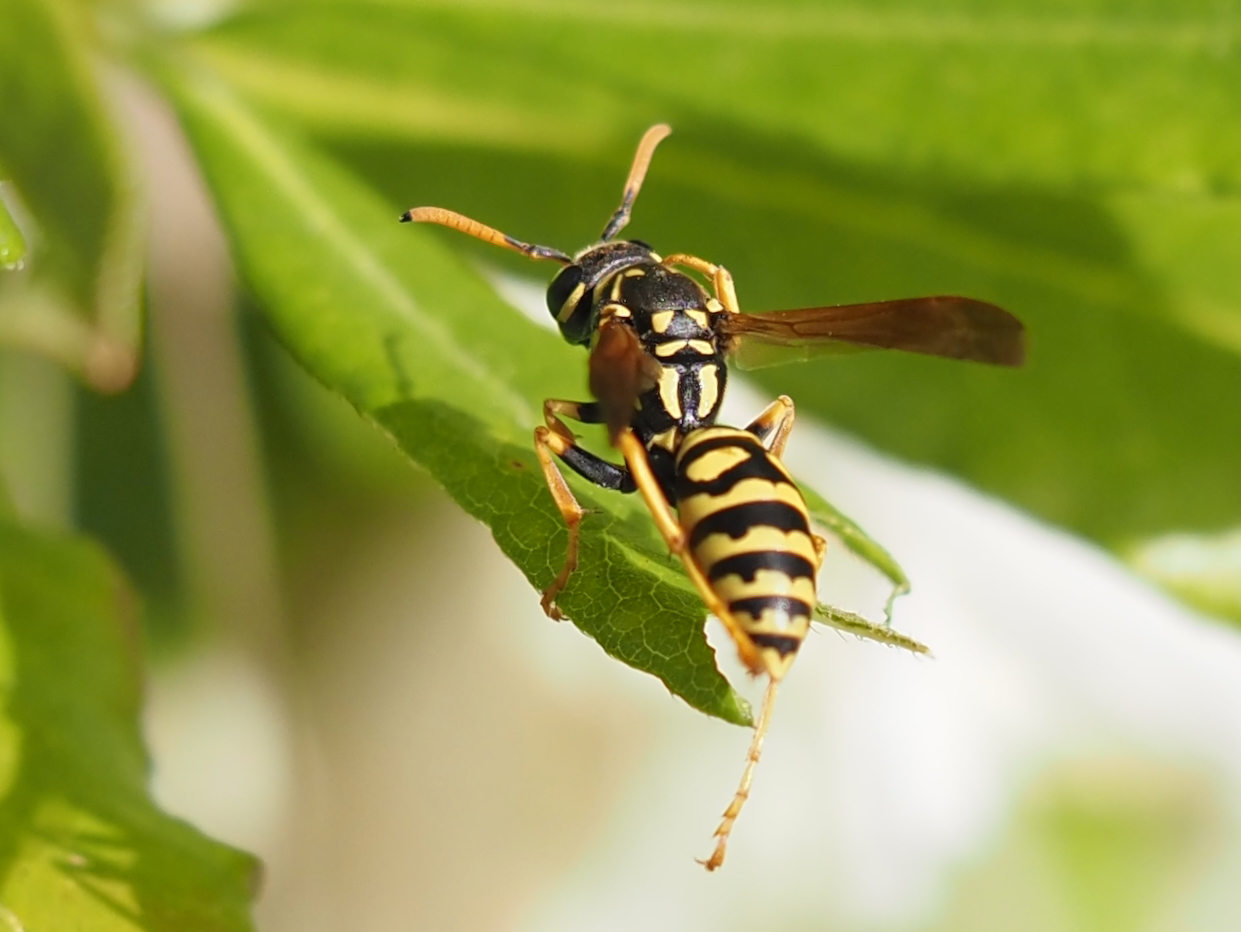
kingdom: Animalia
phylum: Arthropoda
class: Insecta
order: Hymenoptera
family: Eumenidae
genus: Polistes
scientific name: Polistes dominula
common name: Paper wasp
